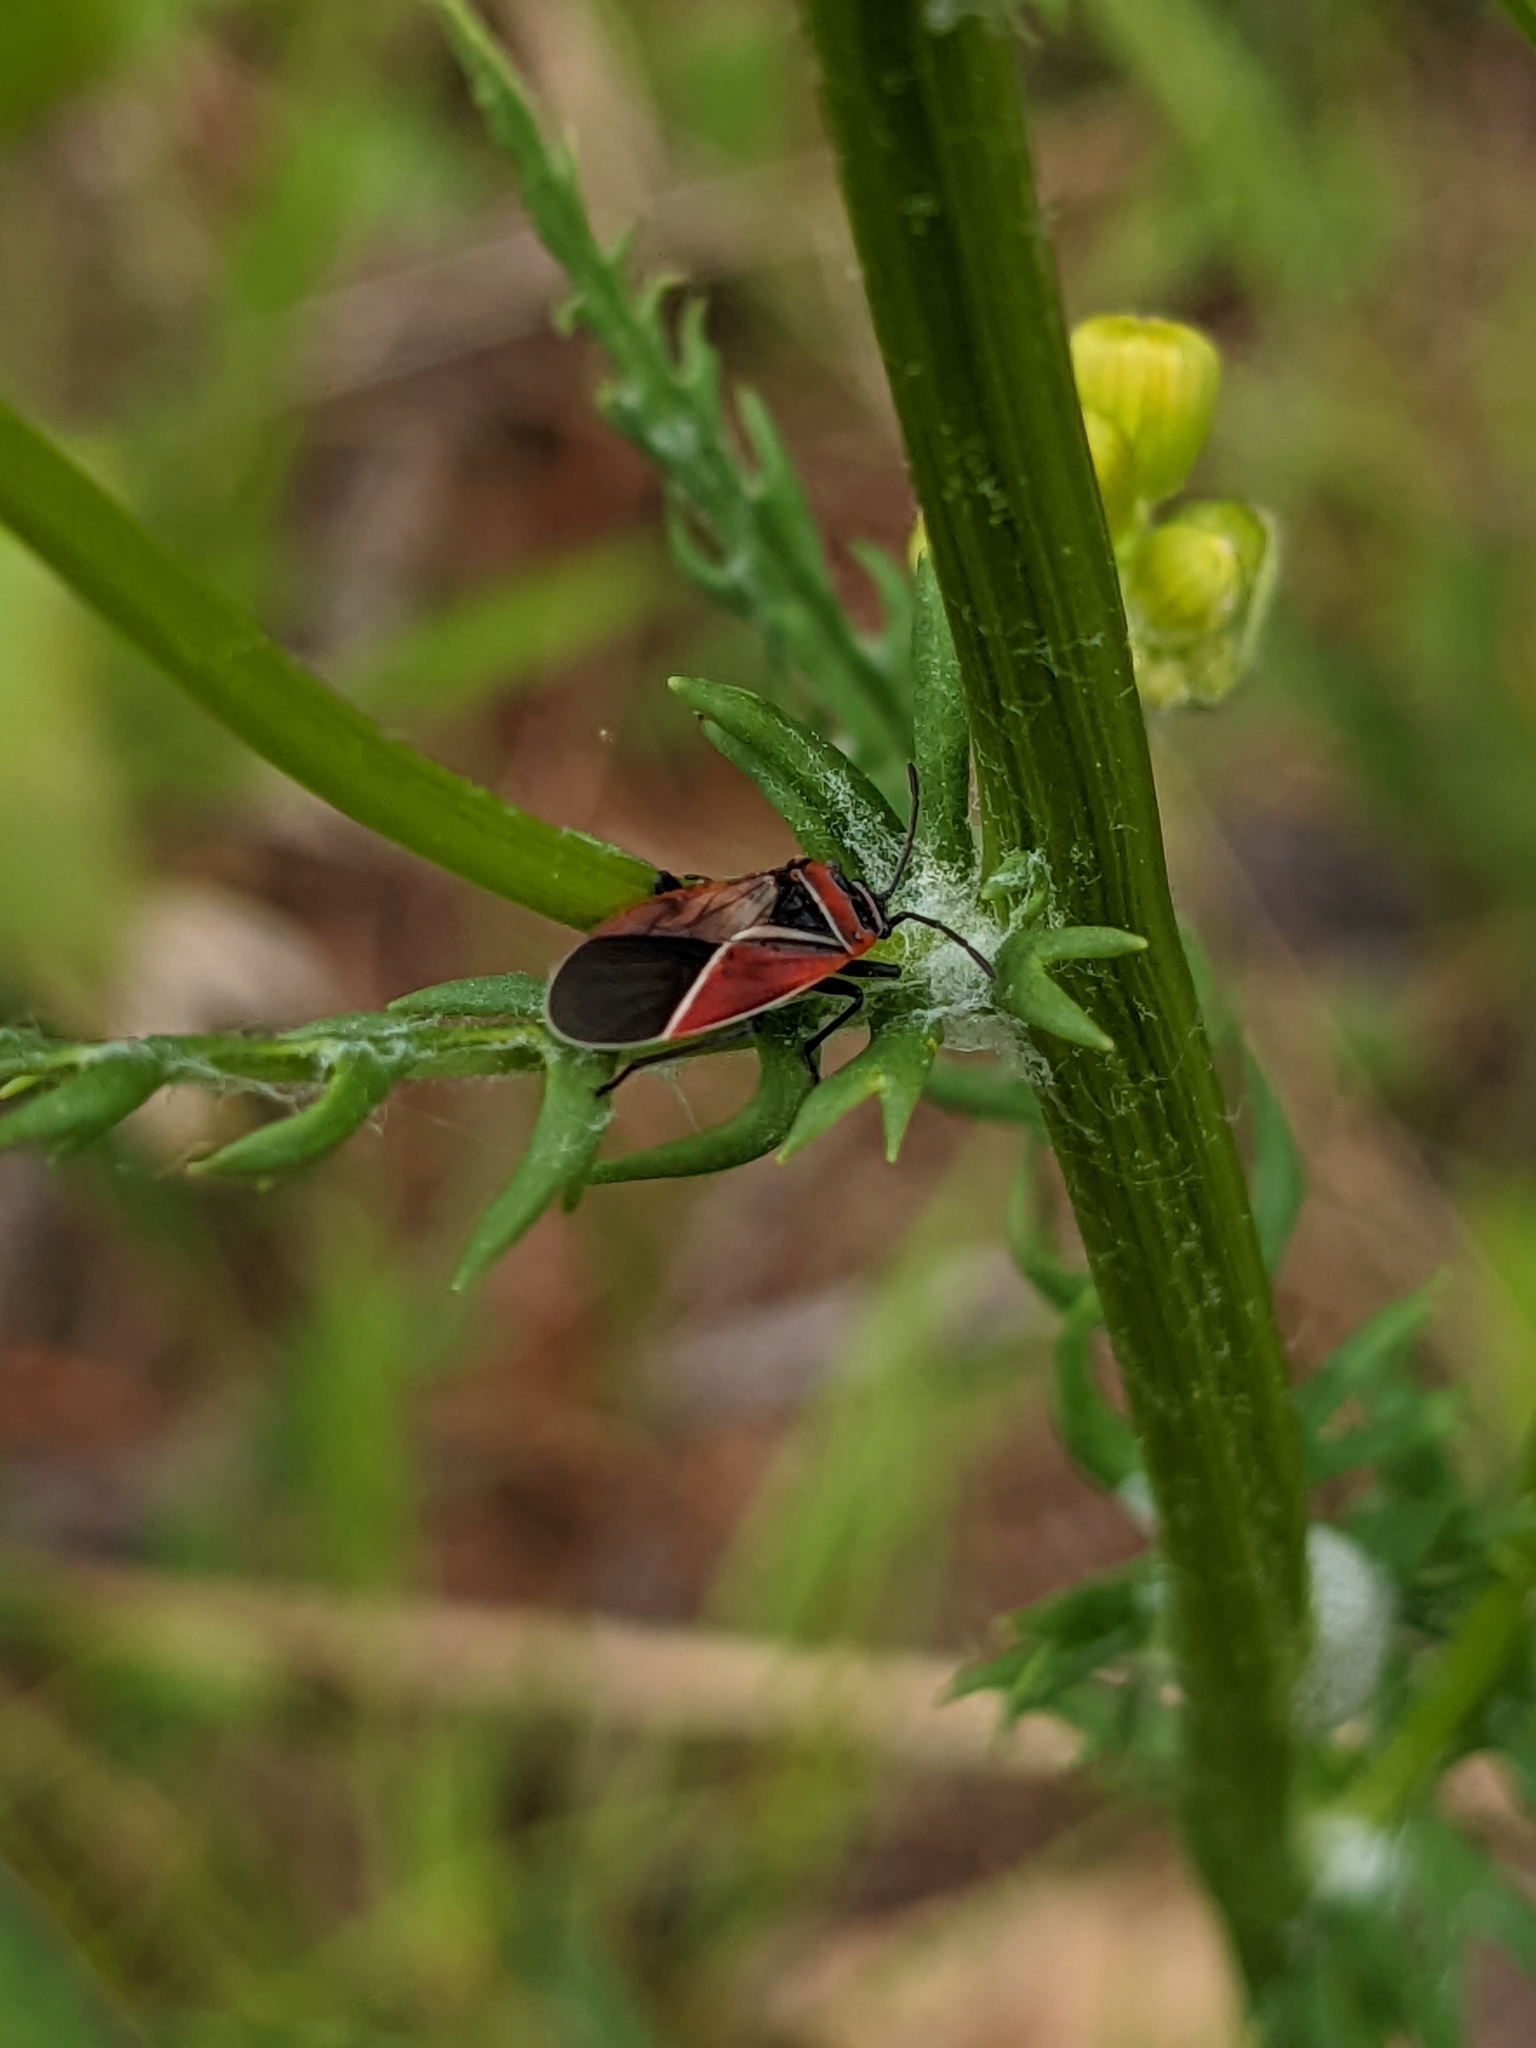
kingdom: Animalia
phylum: Arthropoda
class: Insecta
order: Hemiptera
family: Lygaeidae
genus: Neacoryphus
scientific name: Neacoryphus bicrucis
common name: Lygaeid bug
